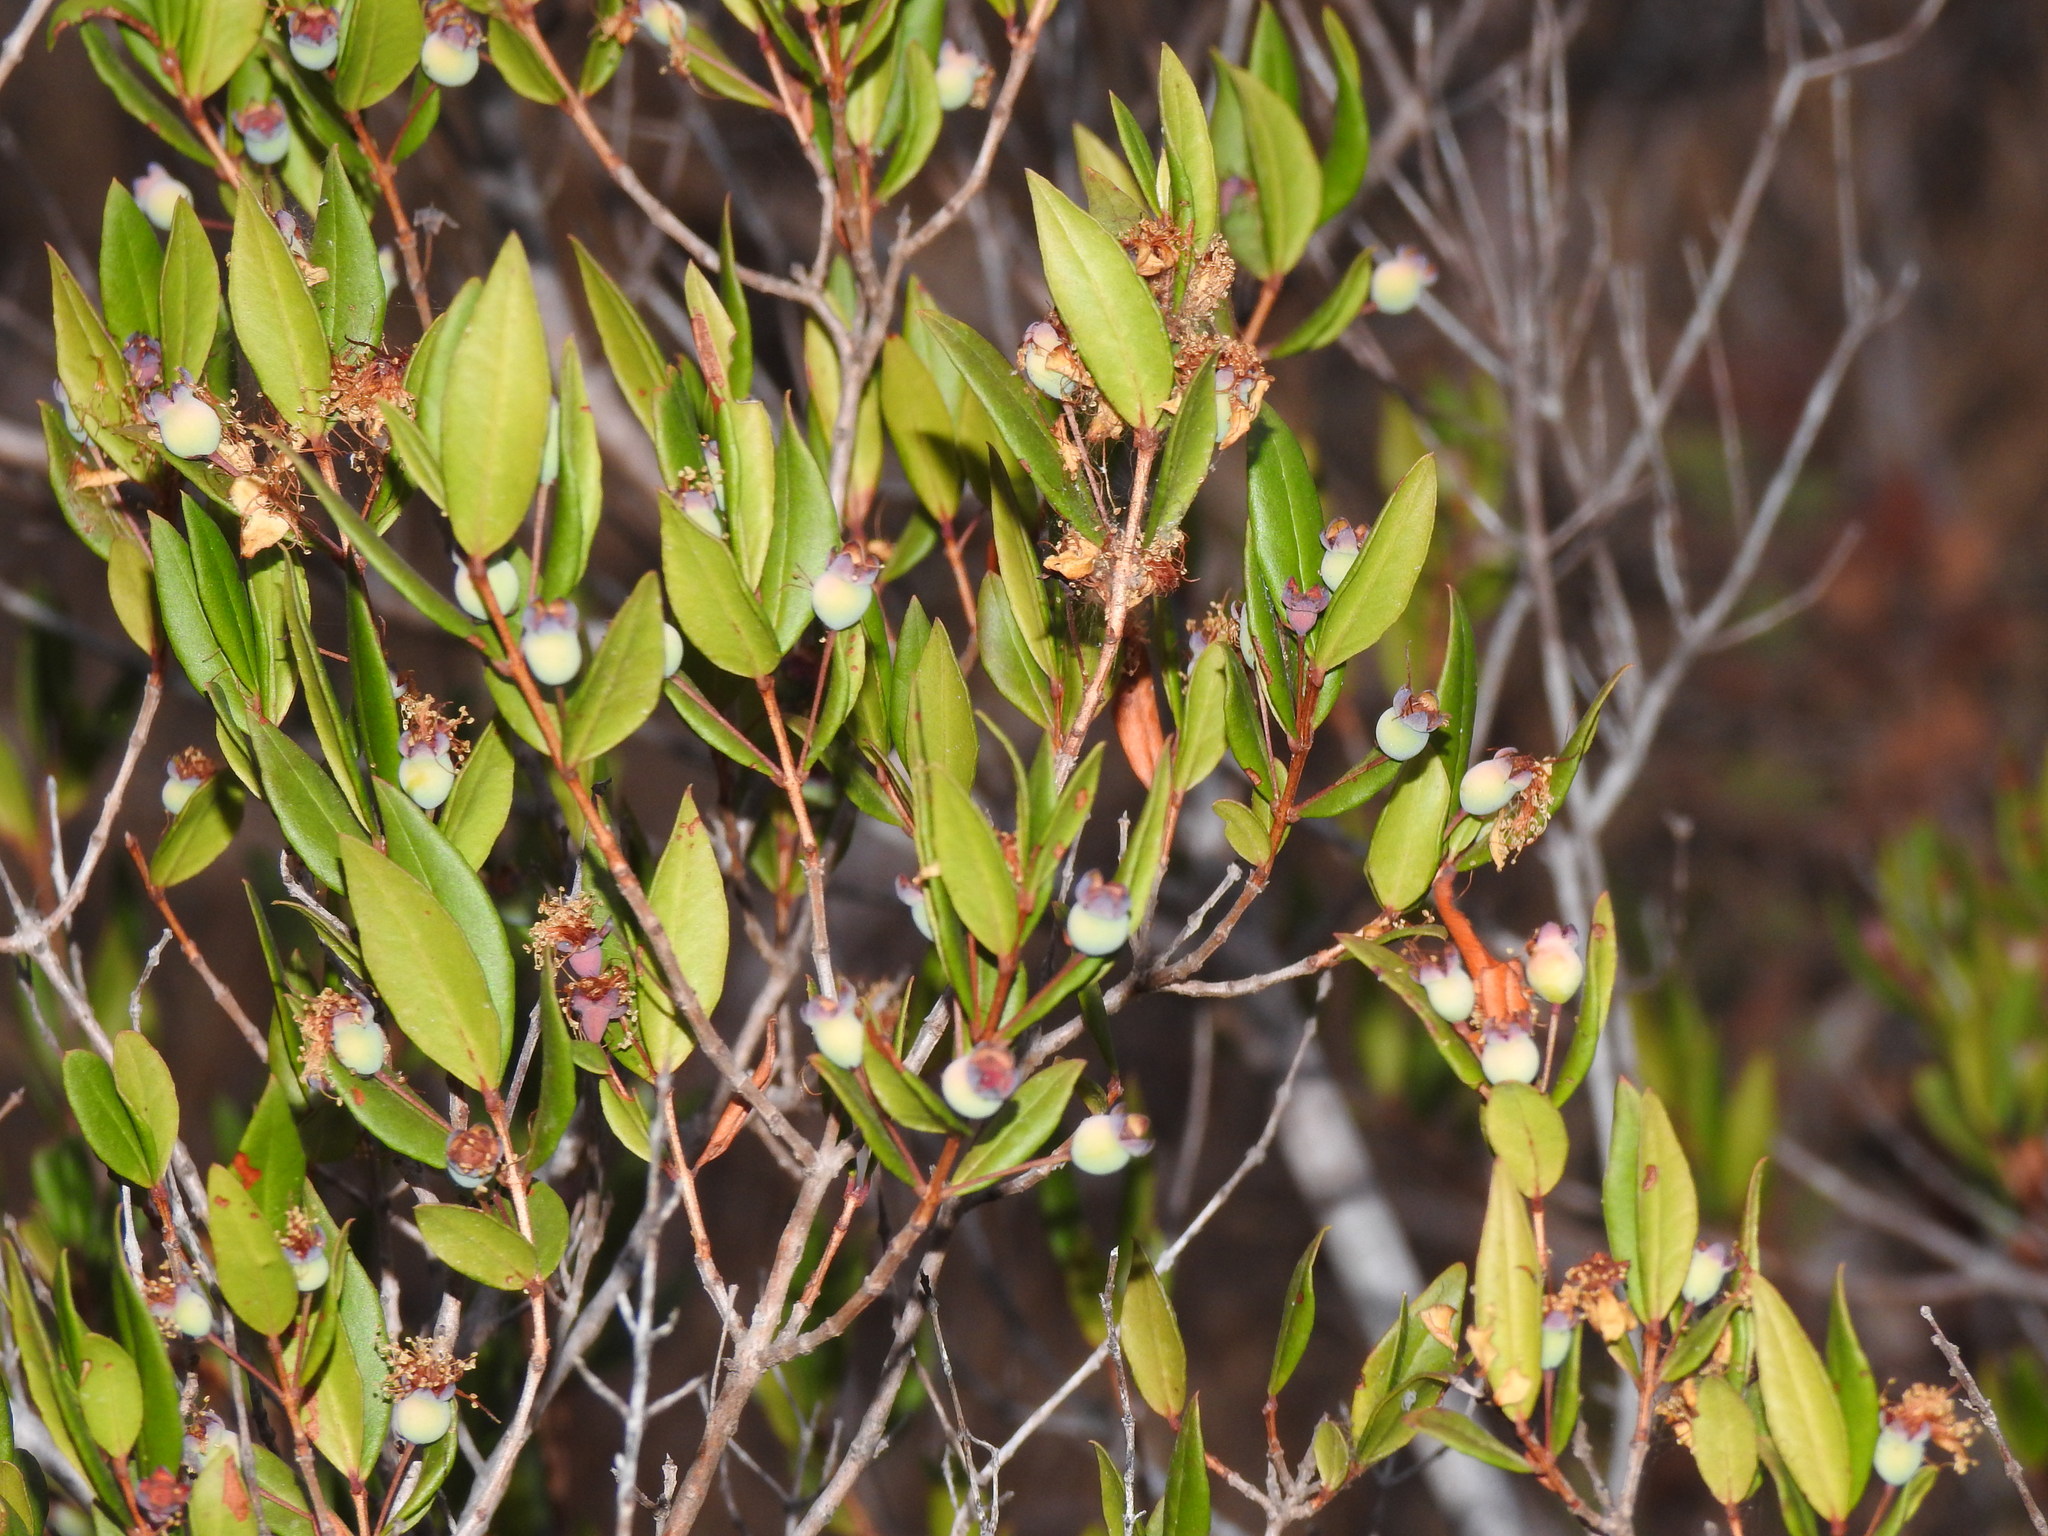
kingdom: Plantae
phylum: Tracheophyta
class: Magnoliopsida
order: Myrtales
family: Myrtaceae
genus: Myrtus
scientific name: Myrtus communis
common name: Myrtle
